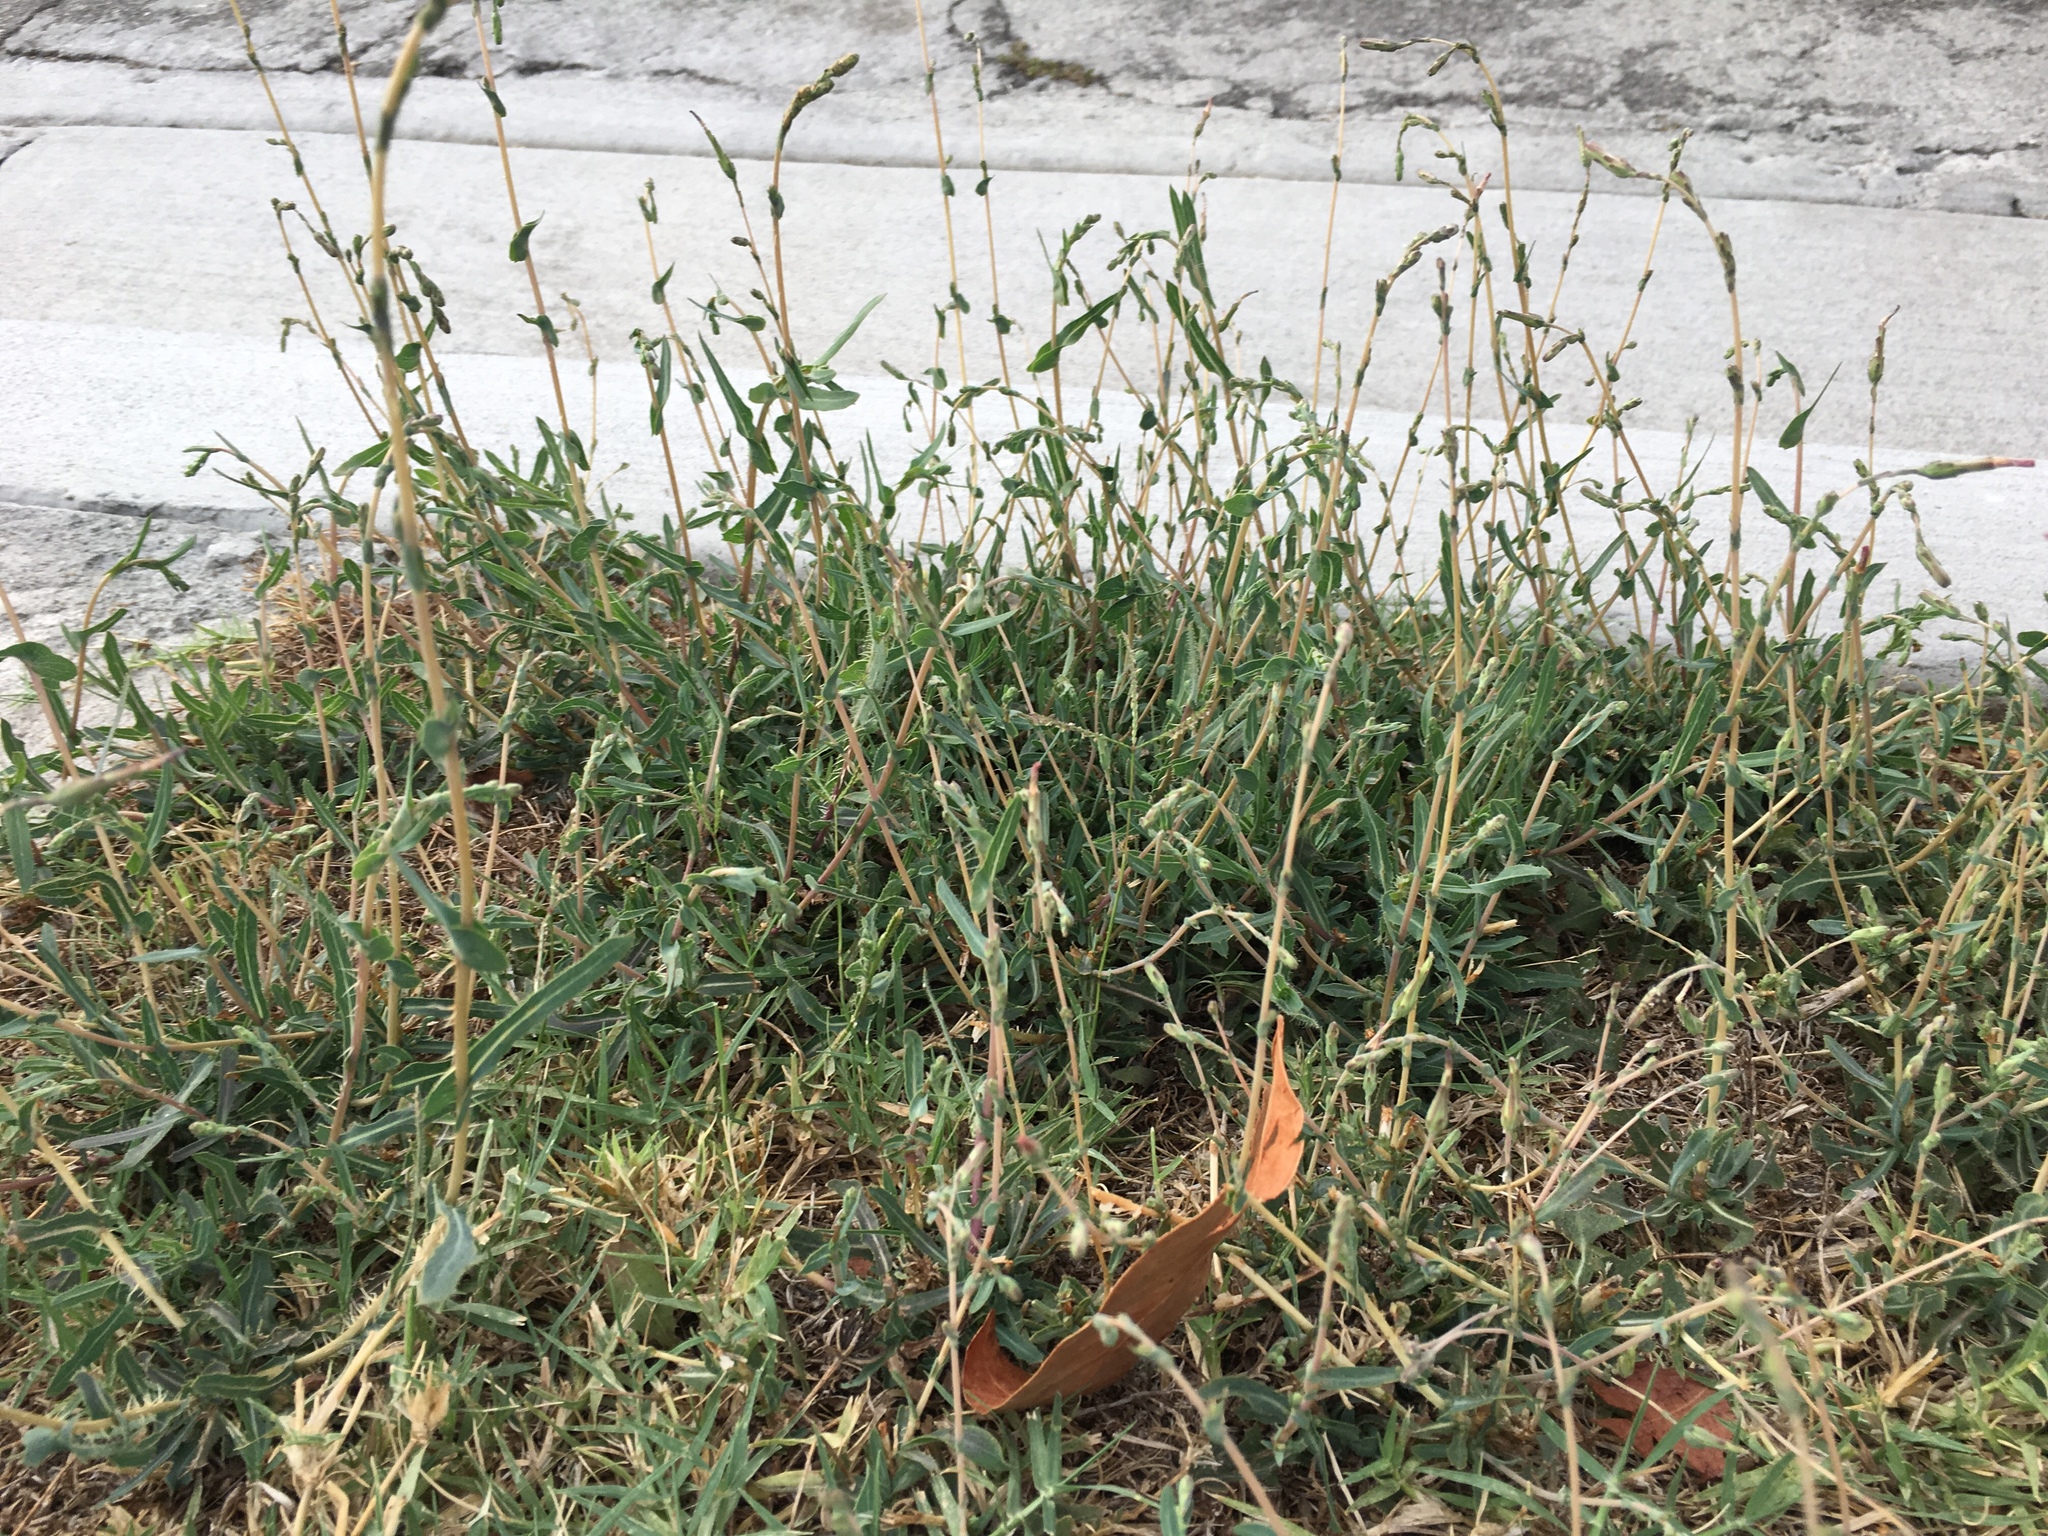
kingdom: Plantae
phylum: Tracheophyta
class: Magnoliopsida
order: Asterales
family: Asteraceae
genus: Lactuca
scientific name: Lactuca serriola
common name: Prickly lettuce
